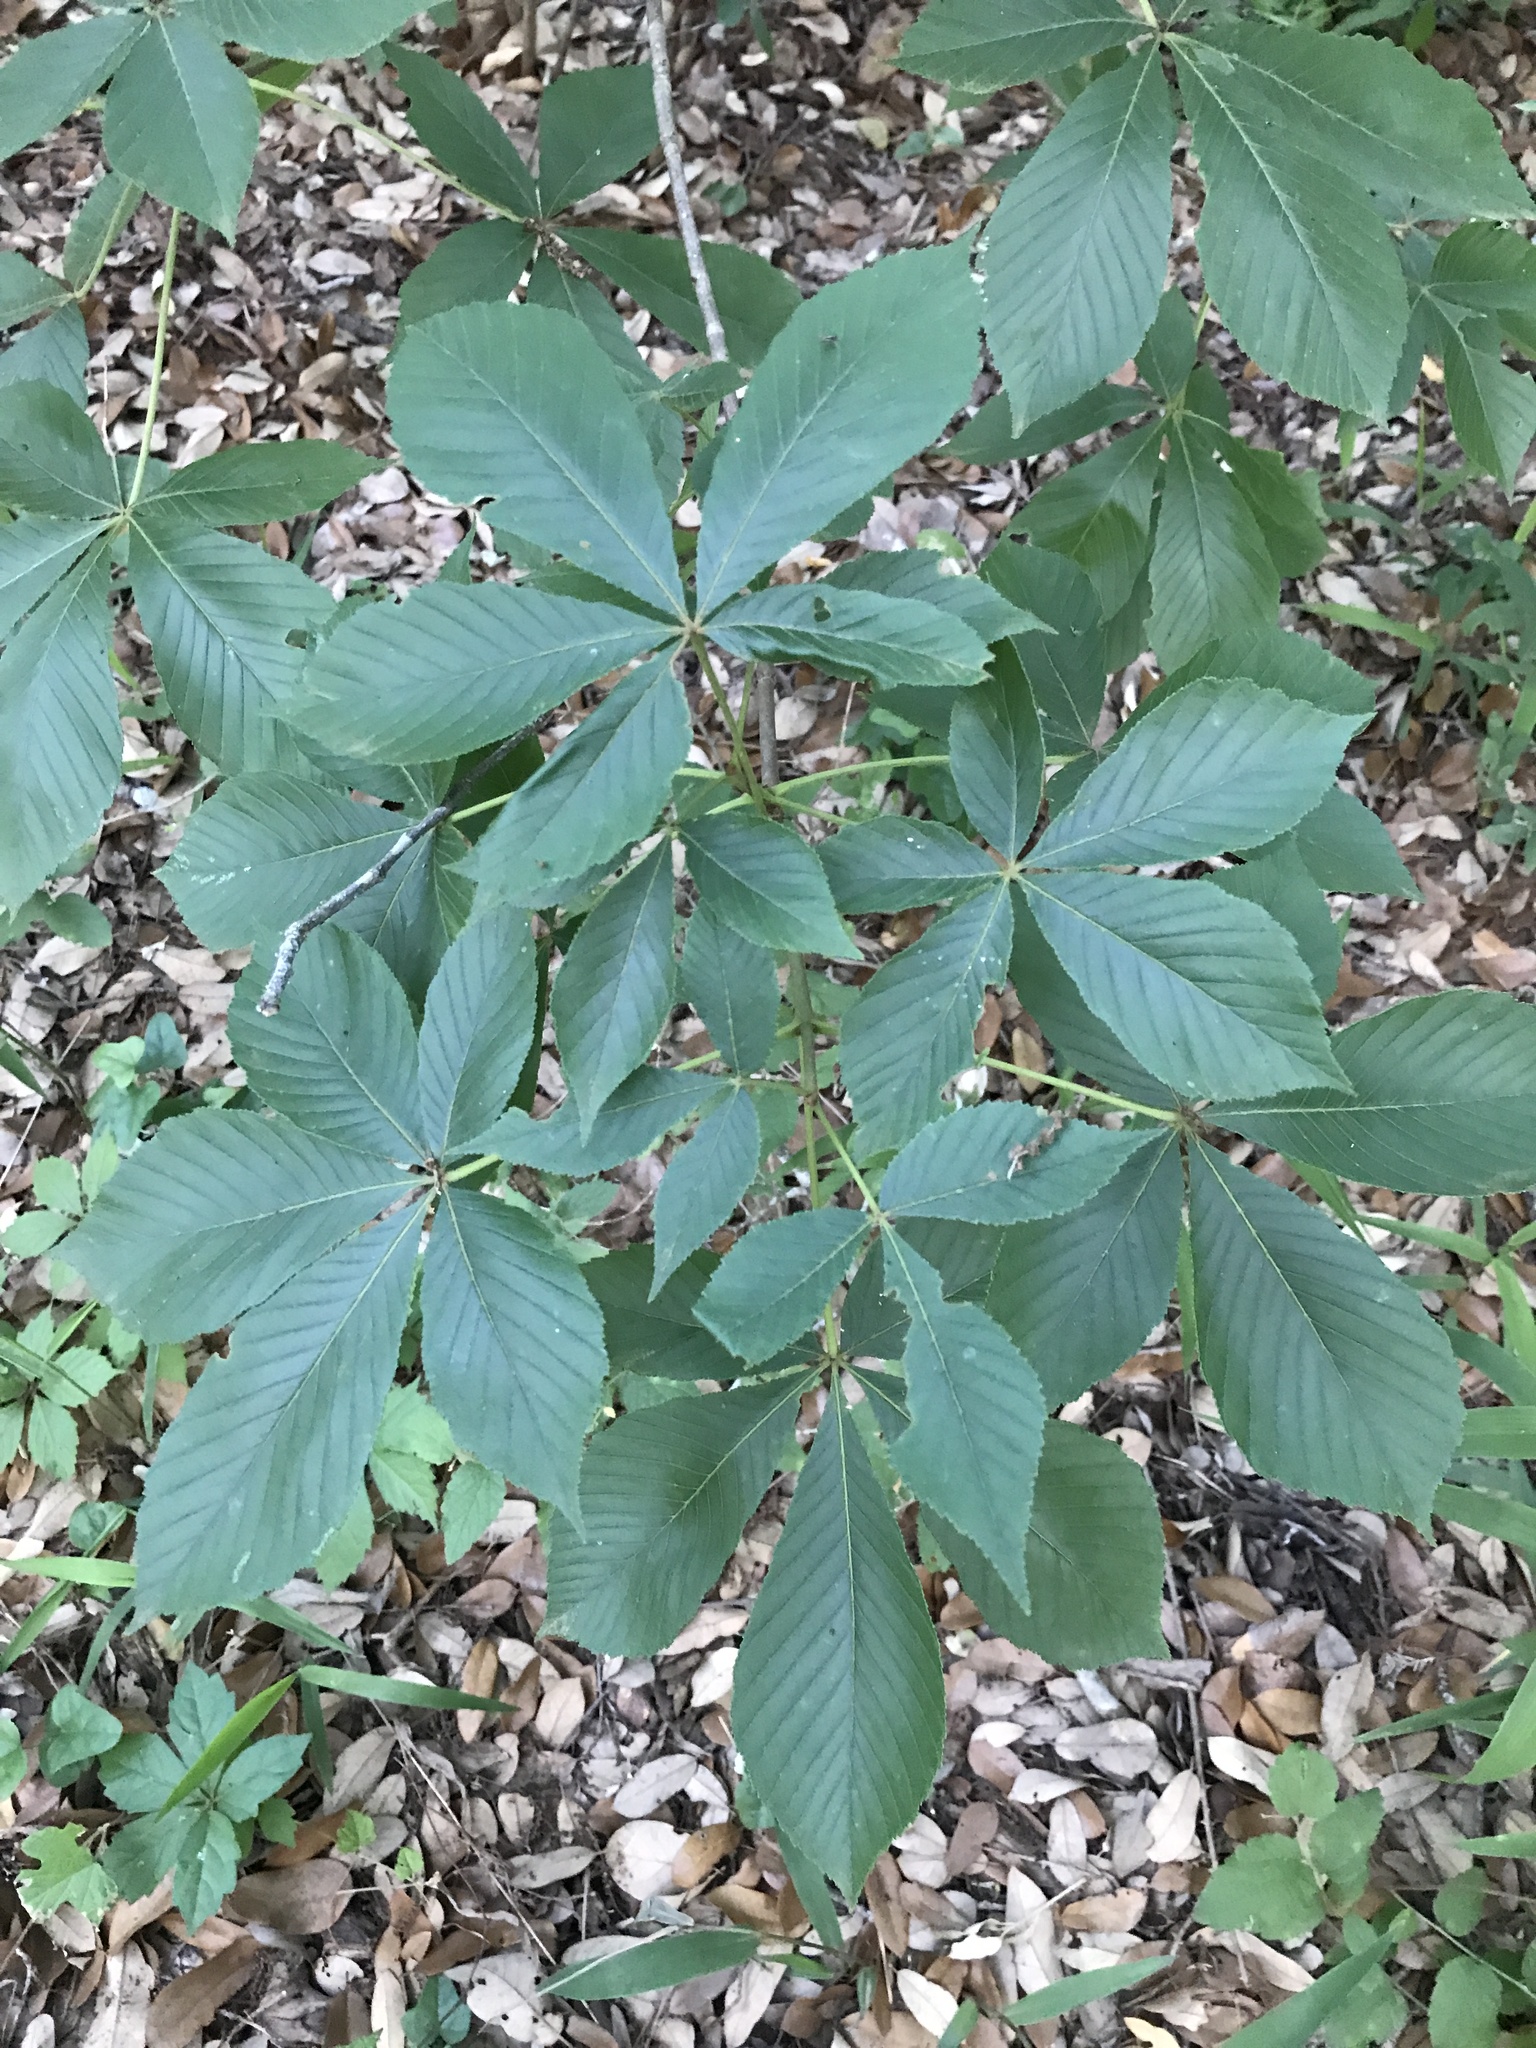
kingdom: Plantae
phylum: Tracheophyta
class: Magnoliopsida
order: Sapindales
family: Sapindaceae
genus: Aesculus
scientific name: Aesculus pavia
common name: Red buckeye
